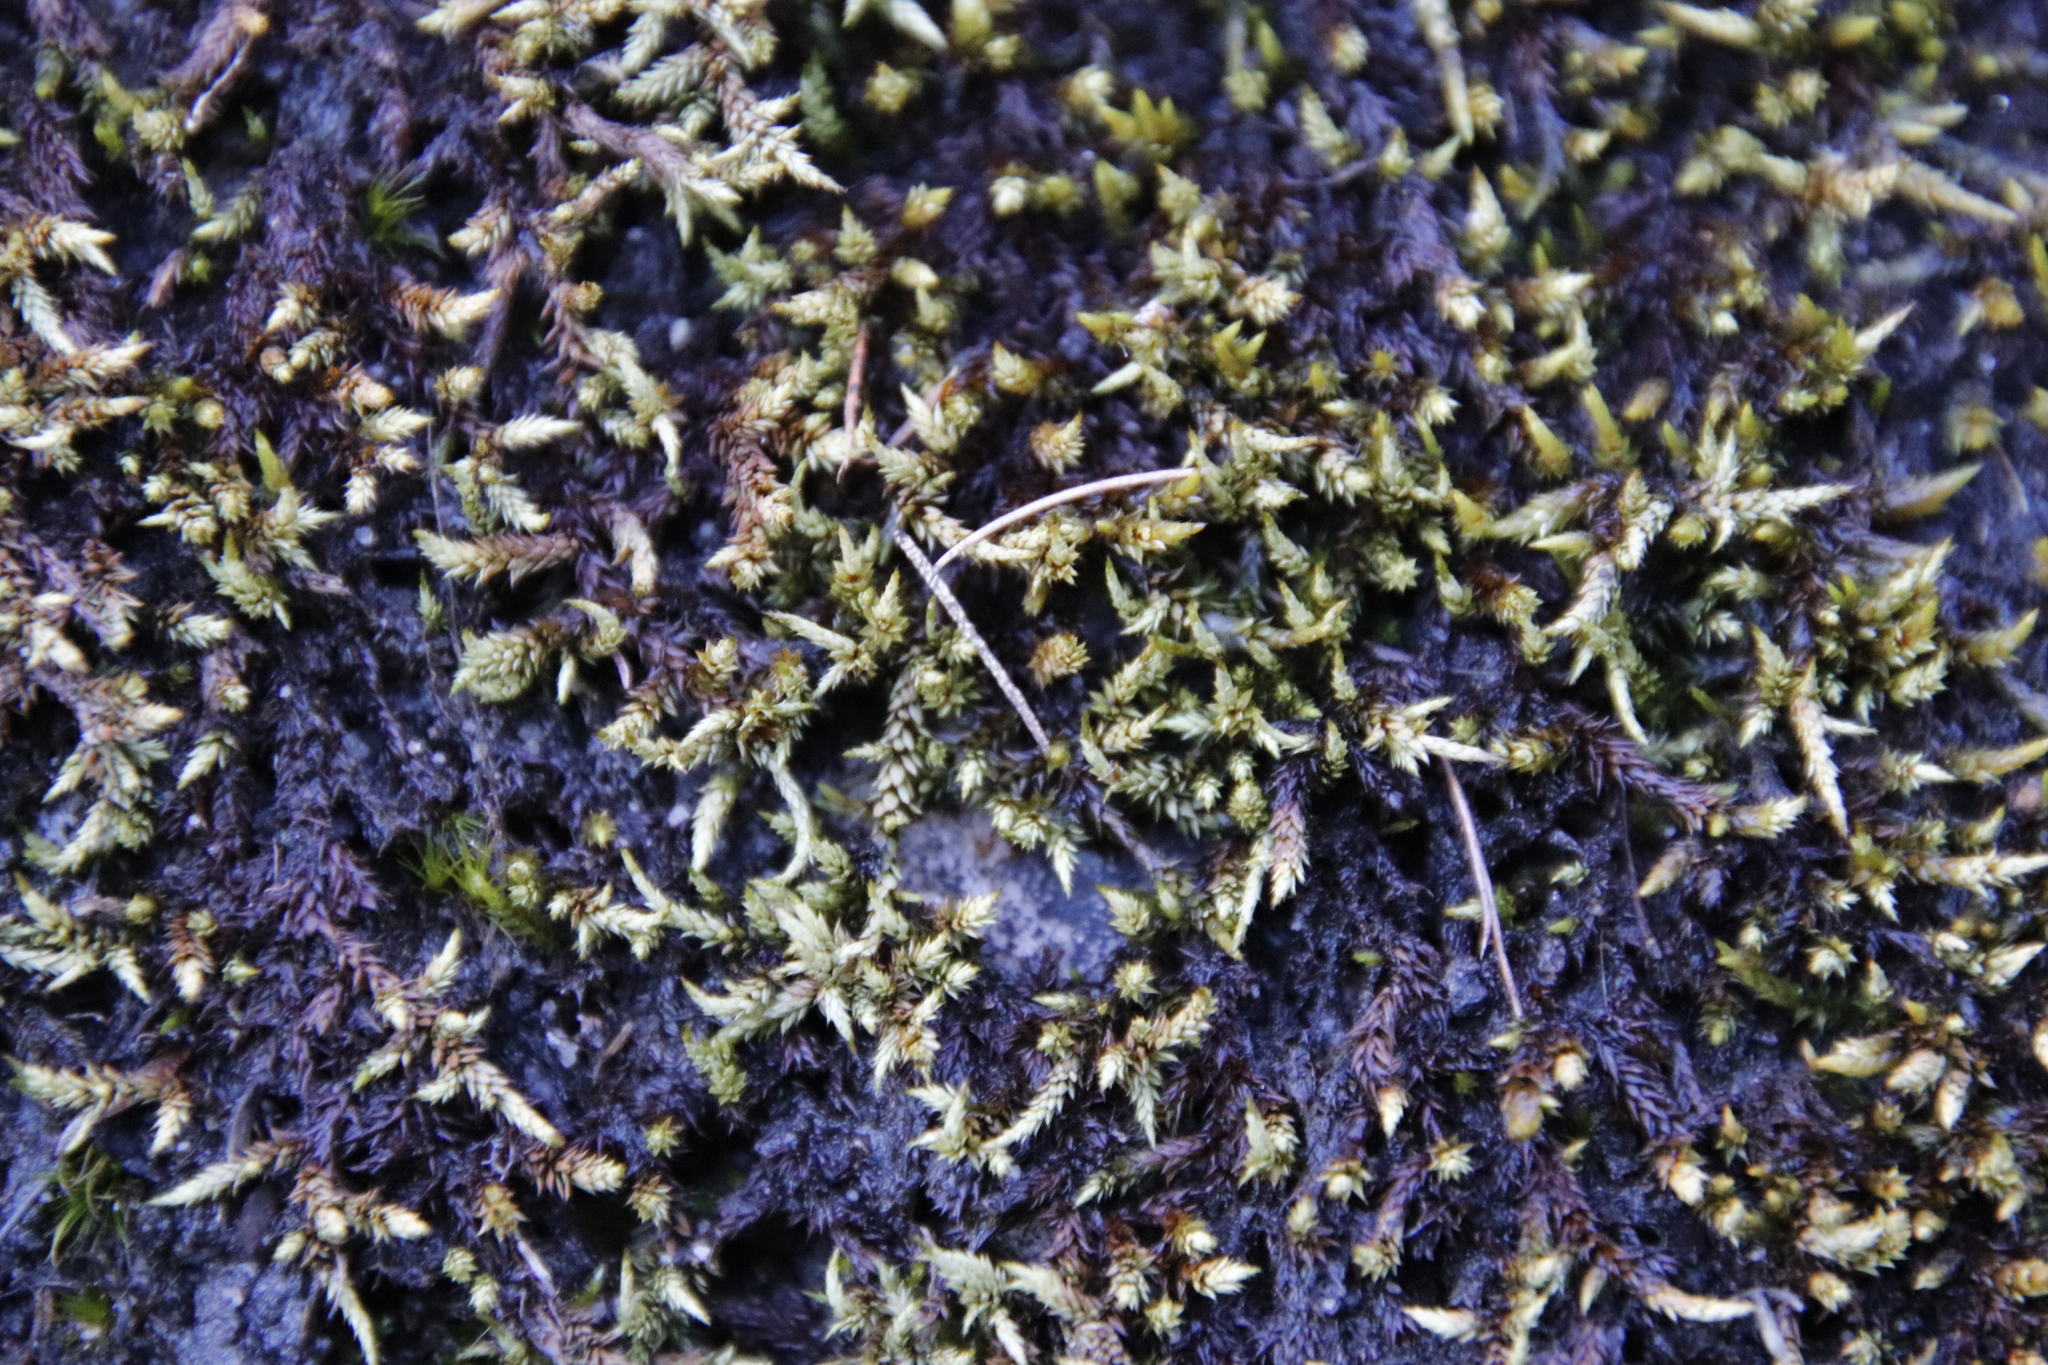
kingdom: Plantae
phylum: Bryophyta
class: Bryopsida
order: Hedwigiales
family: Hedwigiaceae
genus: Rhacocarpus
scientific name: Rhacocarpus purpurascens
